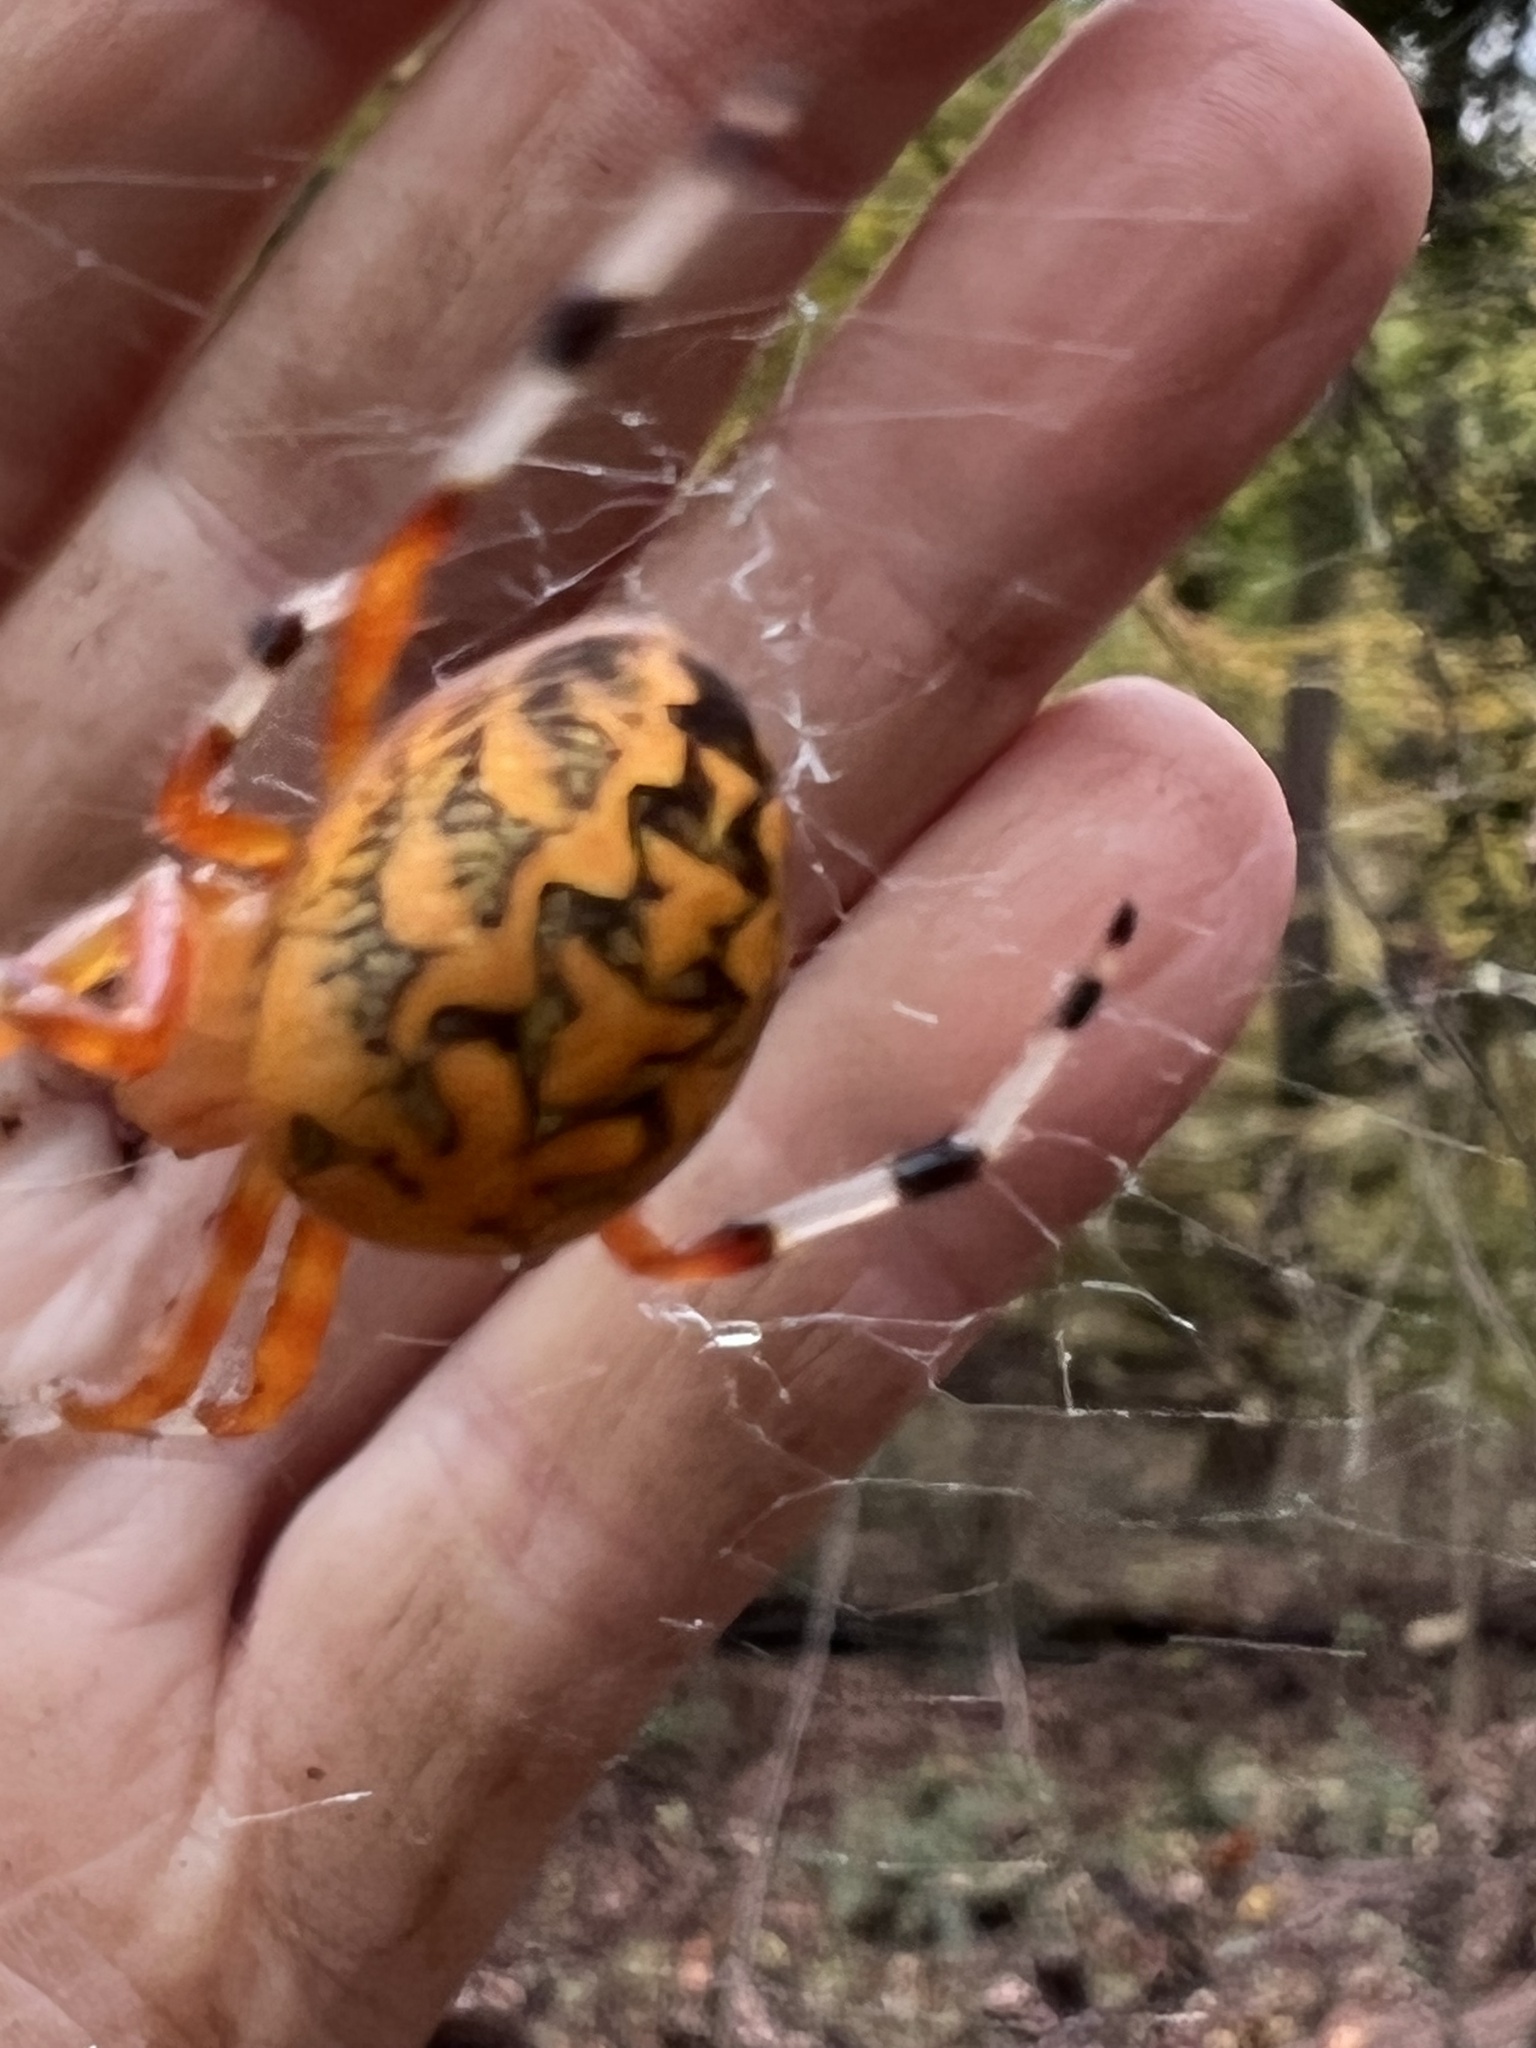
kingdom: Animalia
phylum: Arthropoda
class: Arachnida
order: Araneae
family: Araneidae
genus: Araneus
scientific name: Araneus marmoreus
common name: Marbled orbweaver
